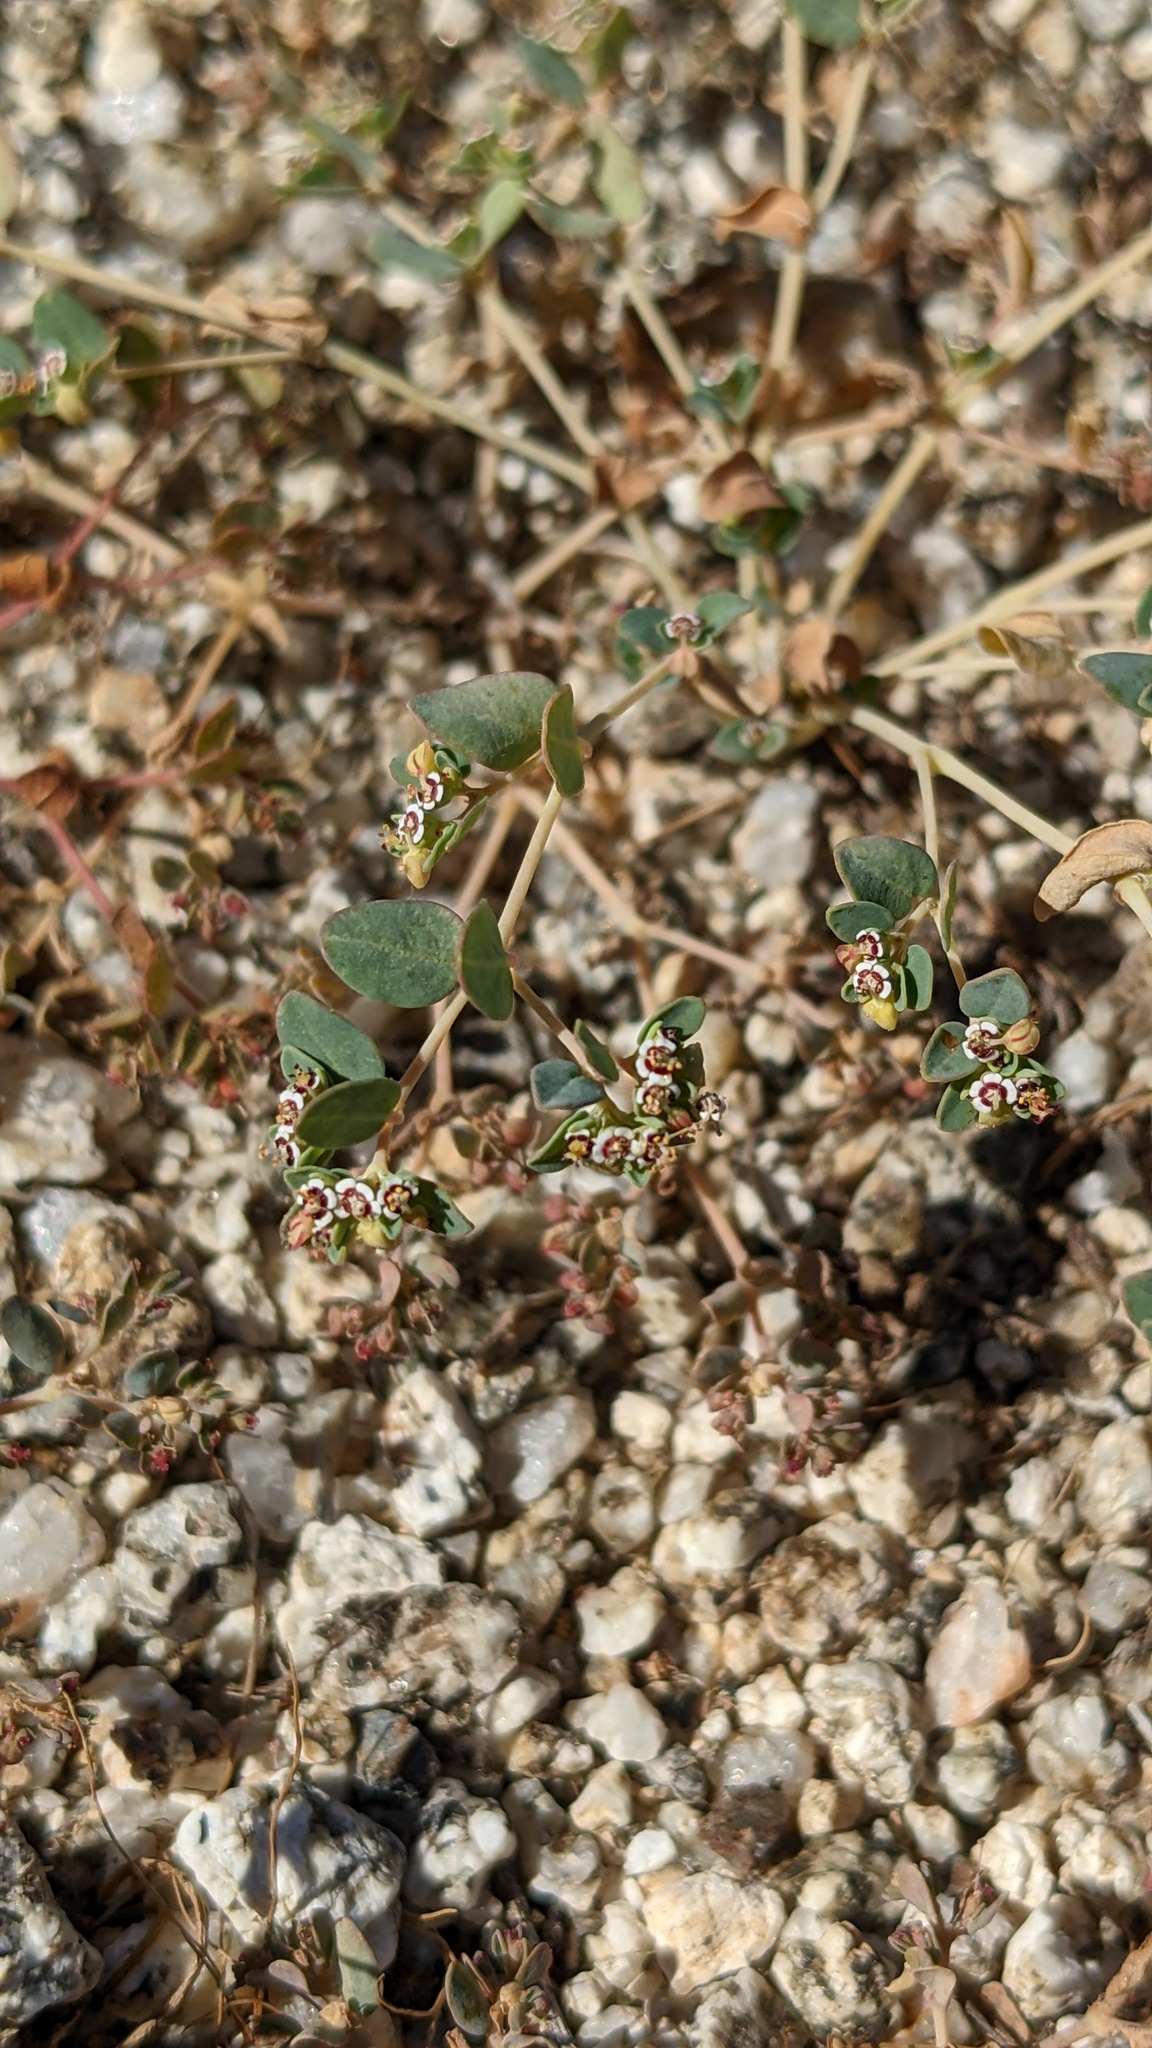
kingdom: Plantae
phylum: Tracheophyta
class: Magnoliopsida
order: Malpighiales
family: Euphorbiaceae
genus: Euphorbia
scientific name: Euphorbia polycarpa
